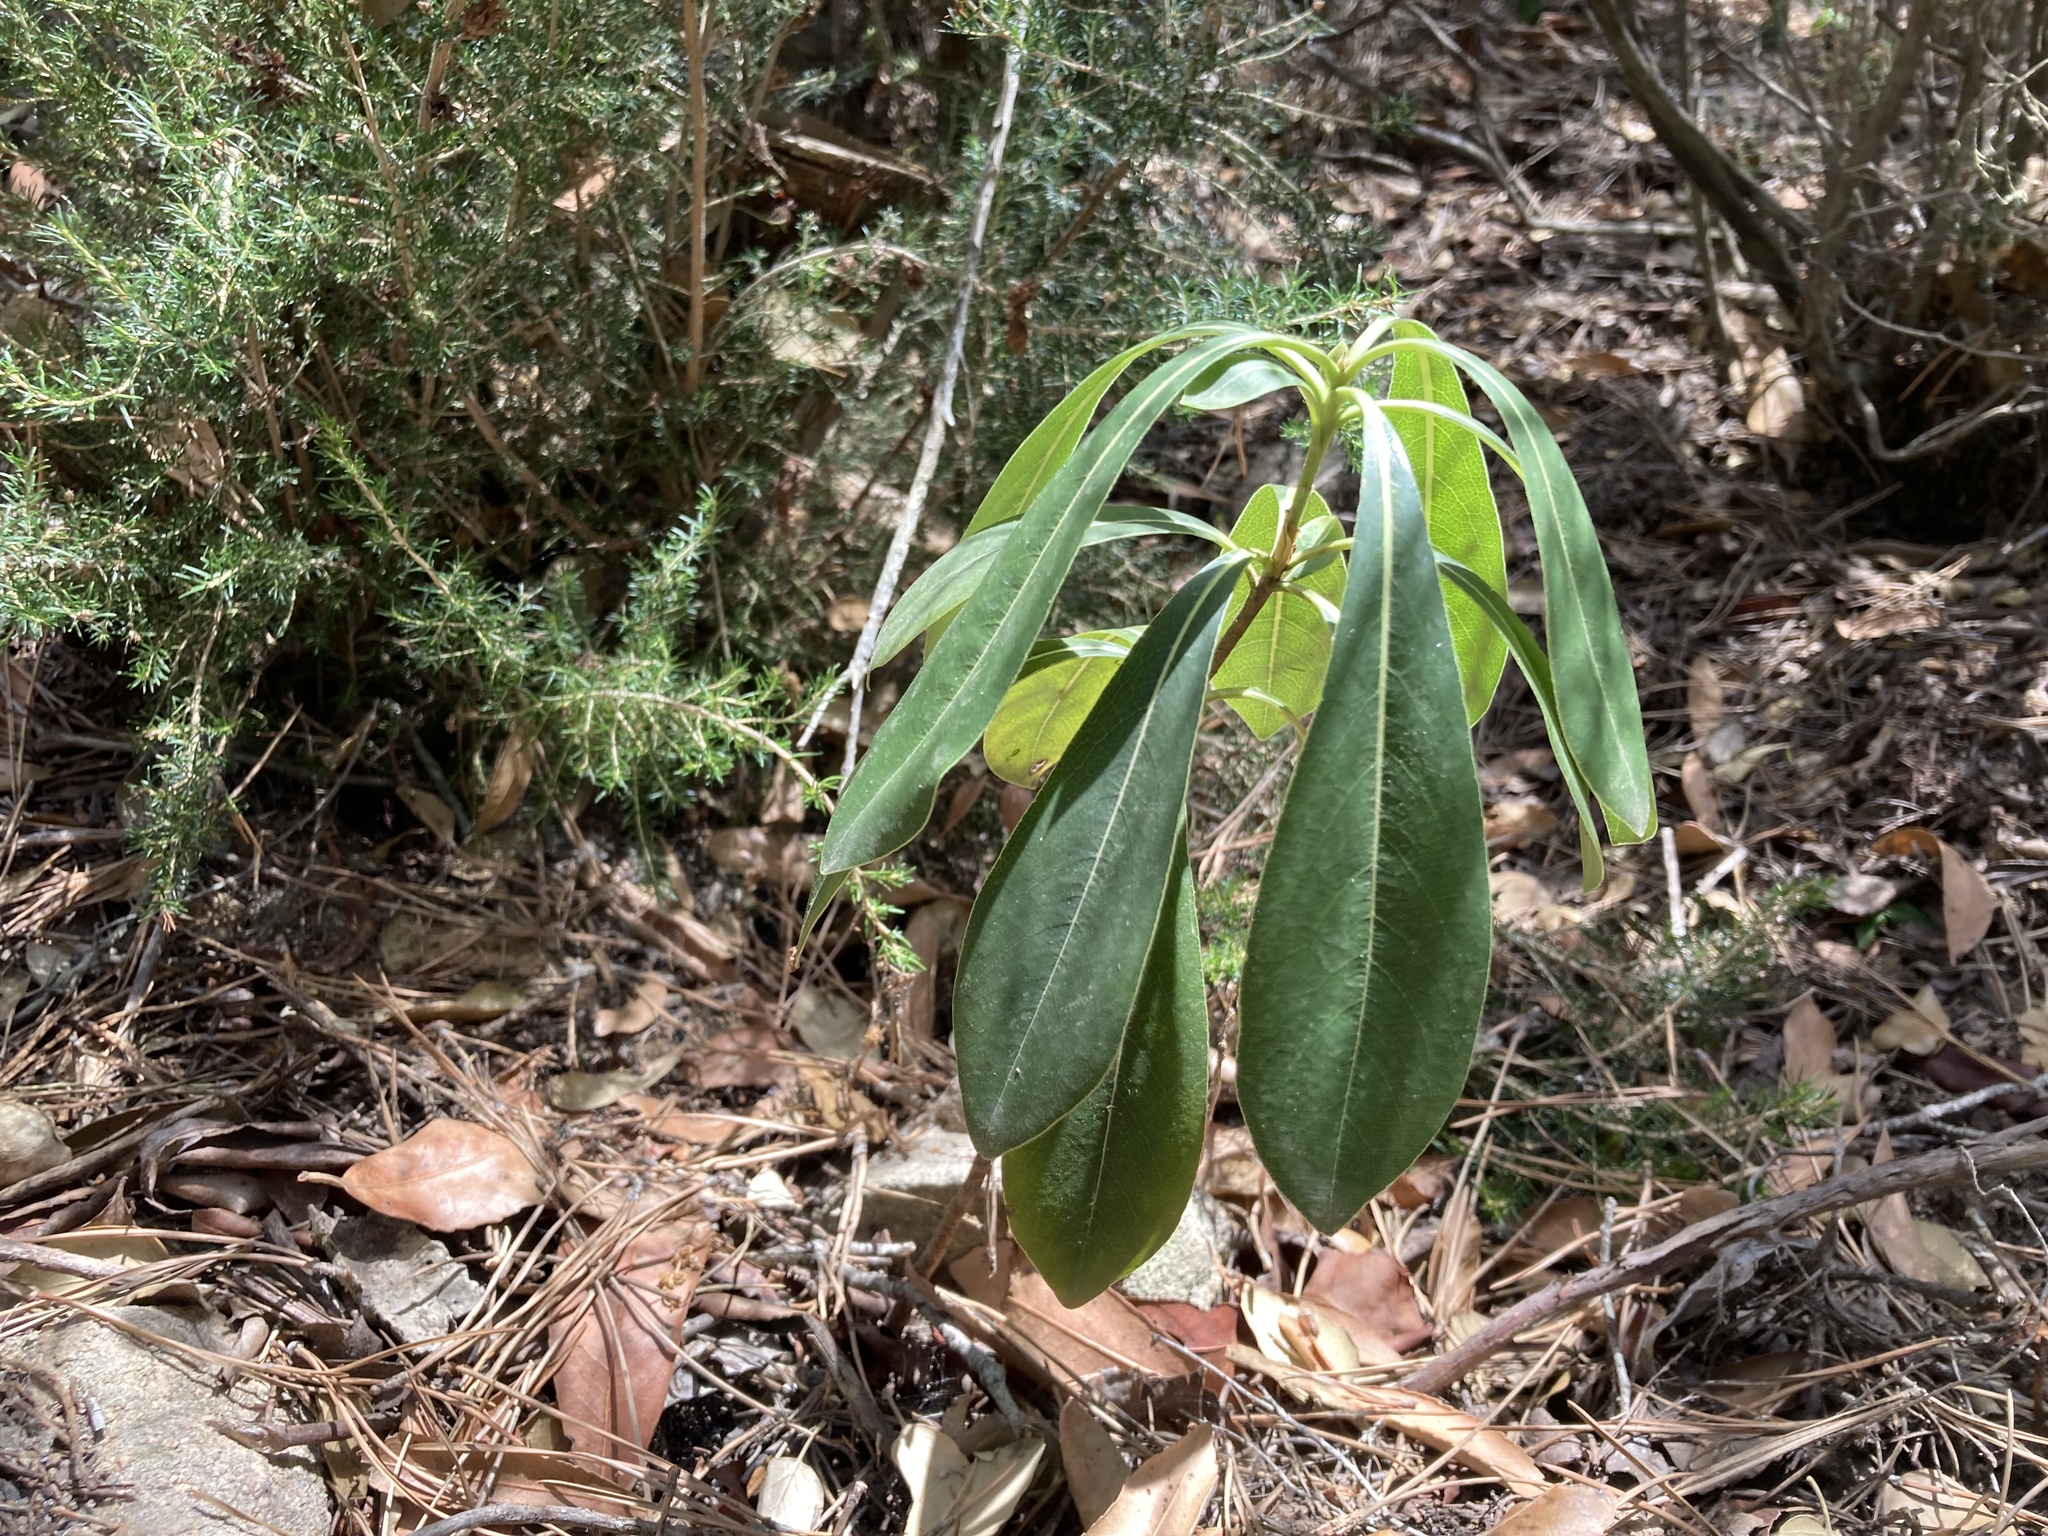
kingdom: Plantae
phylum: Tracheophyta
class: Magnoliopsida
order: Apiales
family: Pittosporaceae
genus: Pittosporum
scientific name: Pittosporum tobira
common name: Japanese cheesewood
